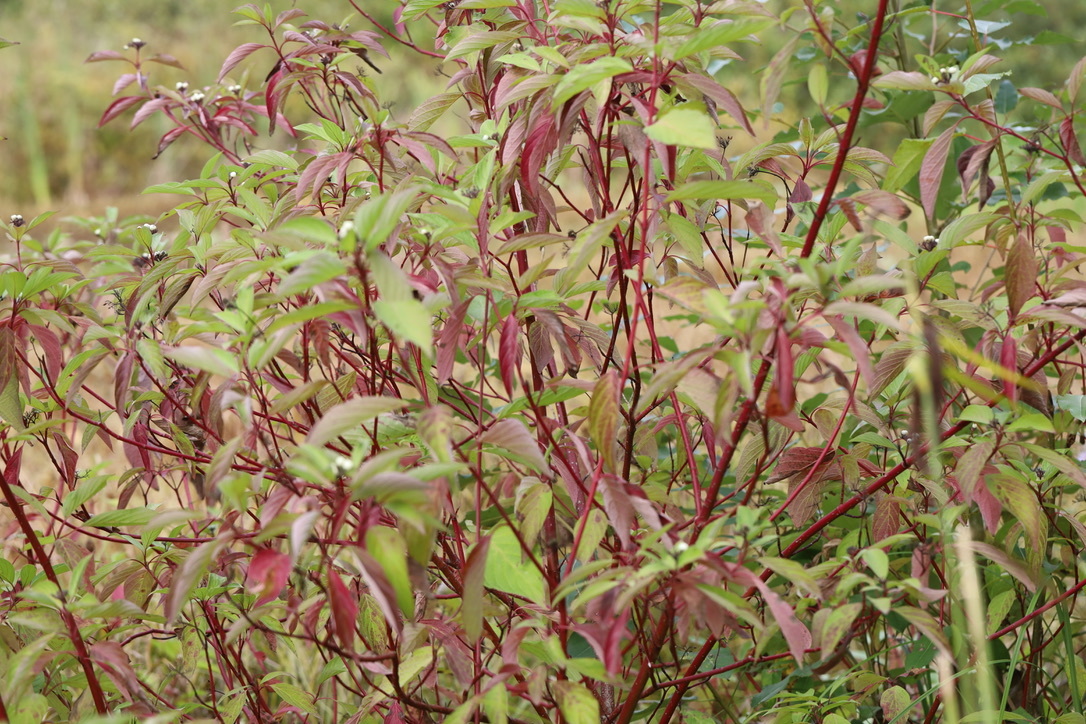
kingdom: Plantae
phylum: Tracheophyta
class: Magnoliopsida
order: Cornales
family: Cornaceae
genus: Cornus
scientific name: Cornus sericea
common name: Red-osier dogwood
